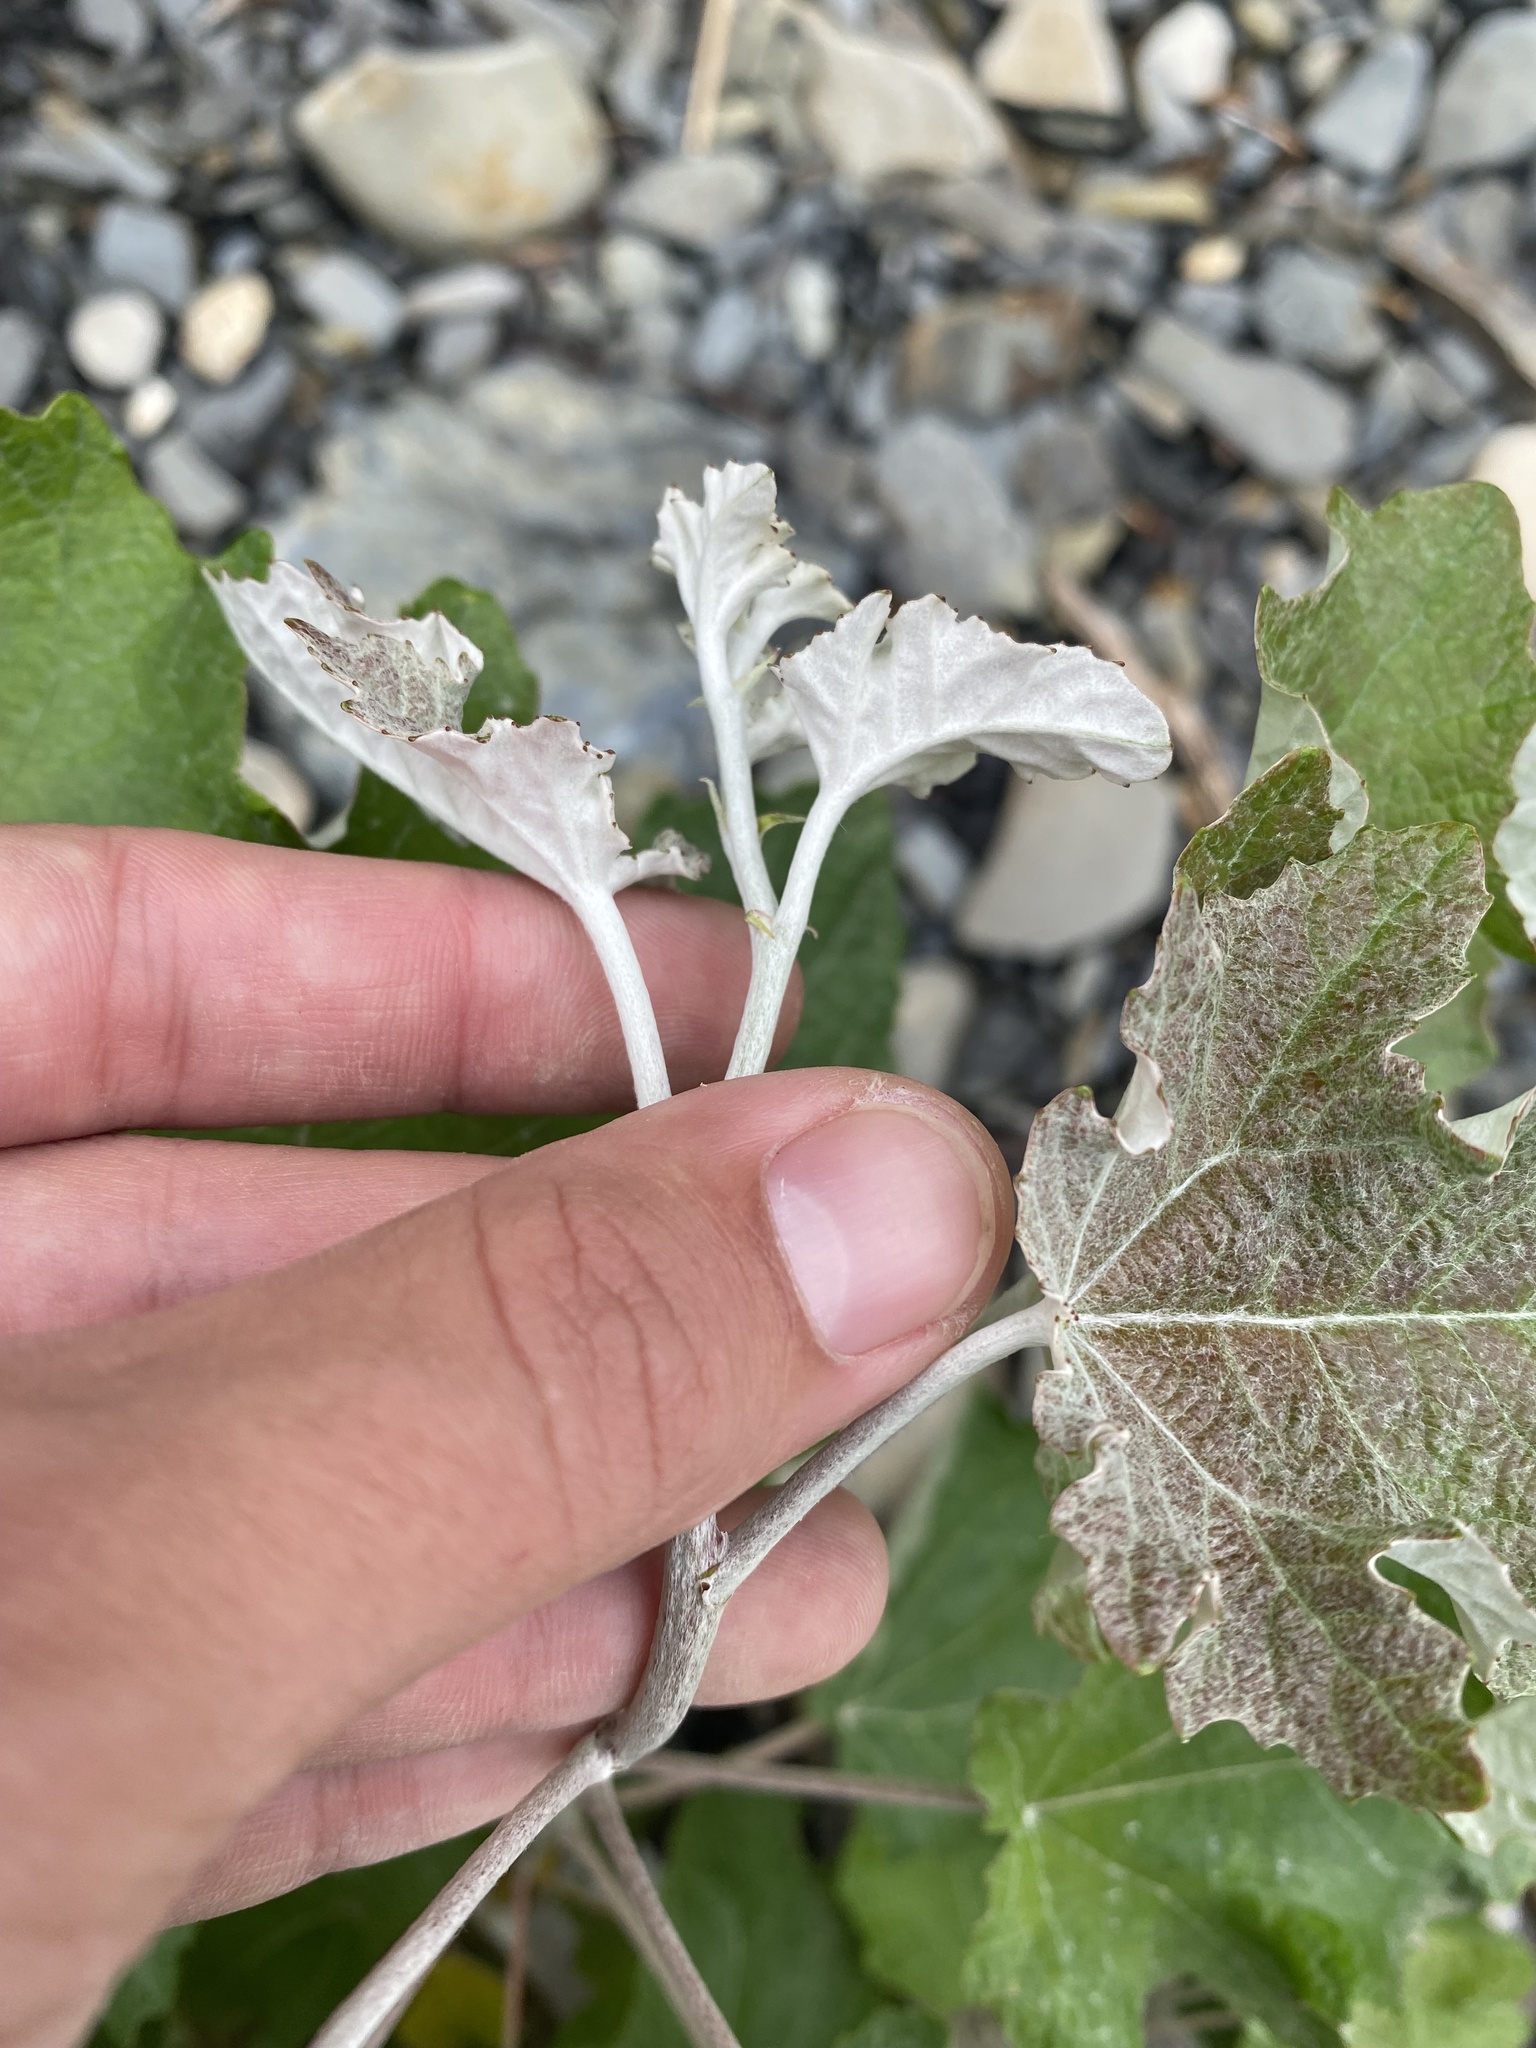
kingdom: Plantae
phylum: Tracheophyta
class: Magnoliopsida
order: Malpighiales
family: Salicaceae
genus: Populus
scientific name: Populus alba
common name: White poplar
